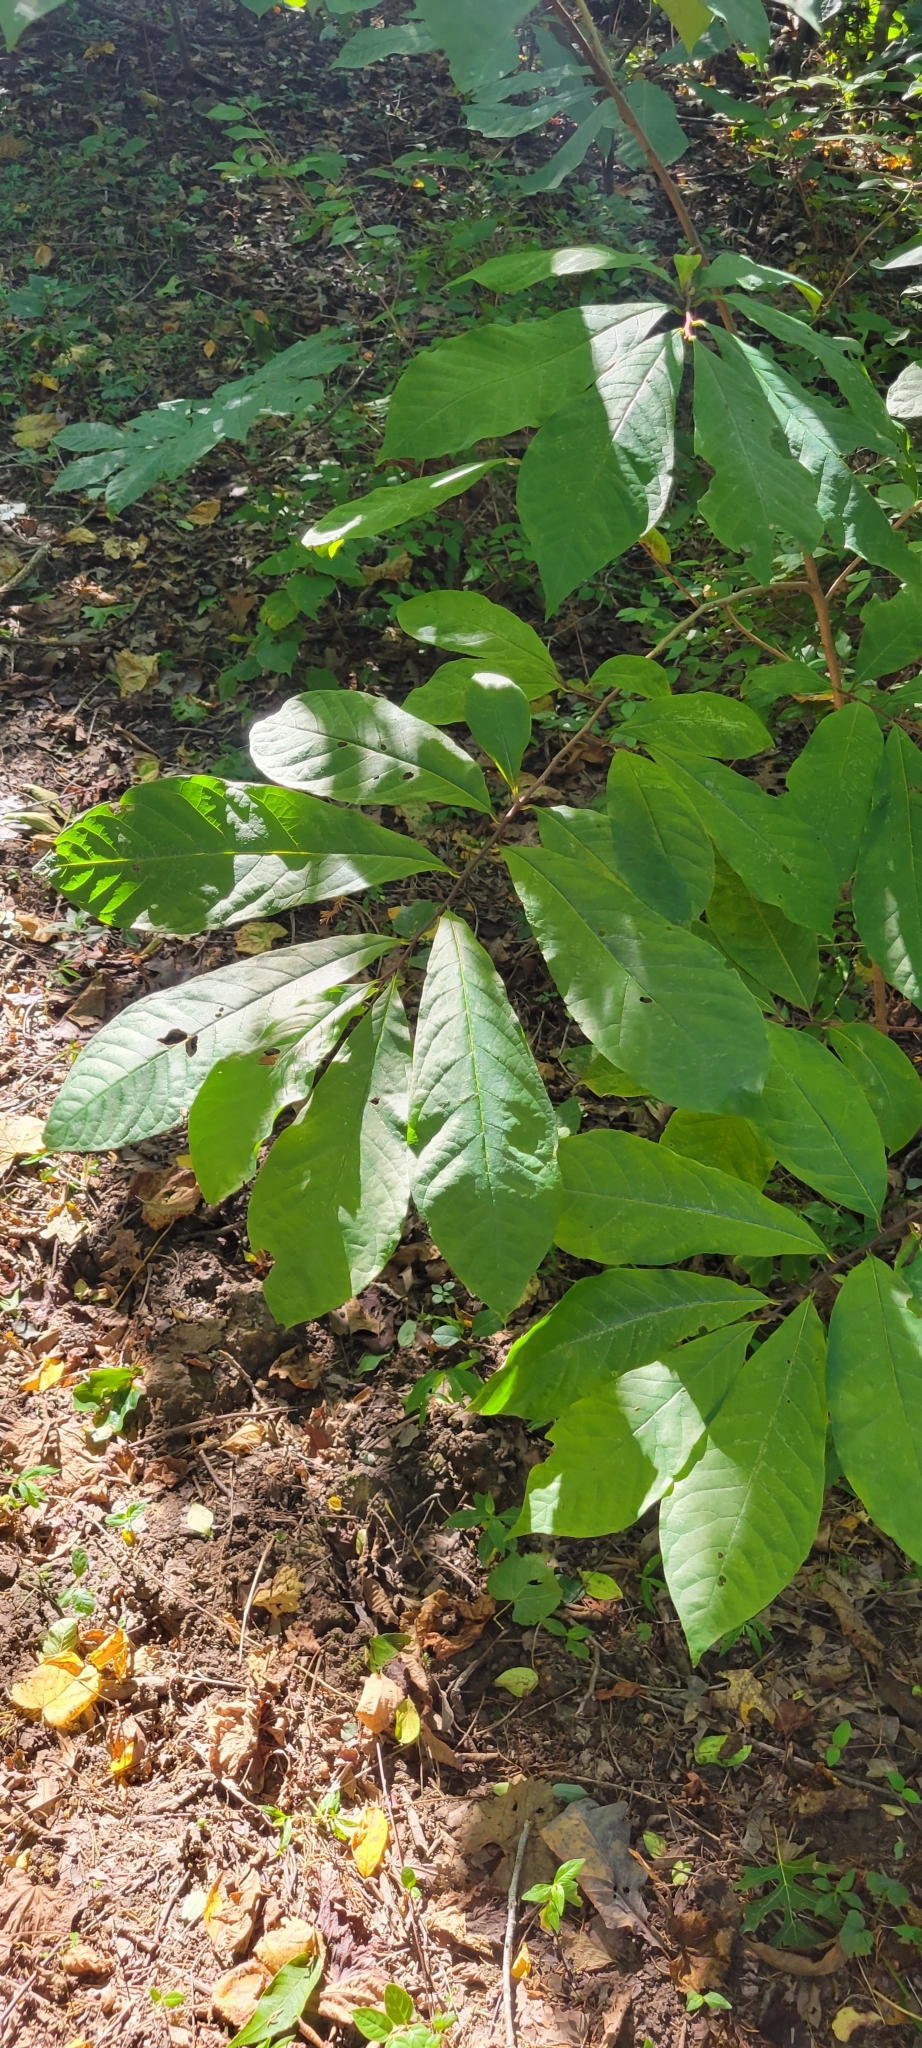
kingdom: Plantae
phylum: Tracheophyta
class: Magnoliopsida
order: Magnoliales
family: Annonaceae
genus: Asimina
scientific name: Asimina triloba
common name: Dog-banana
